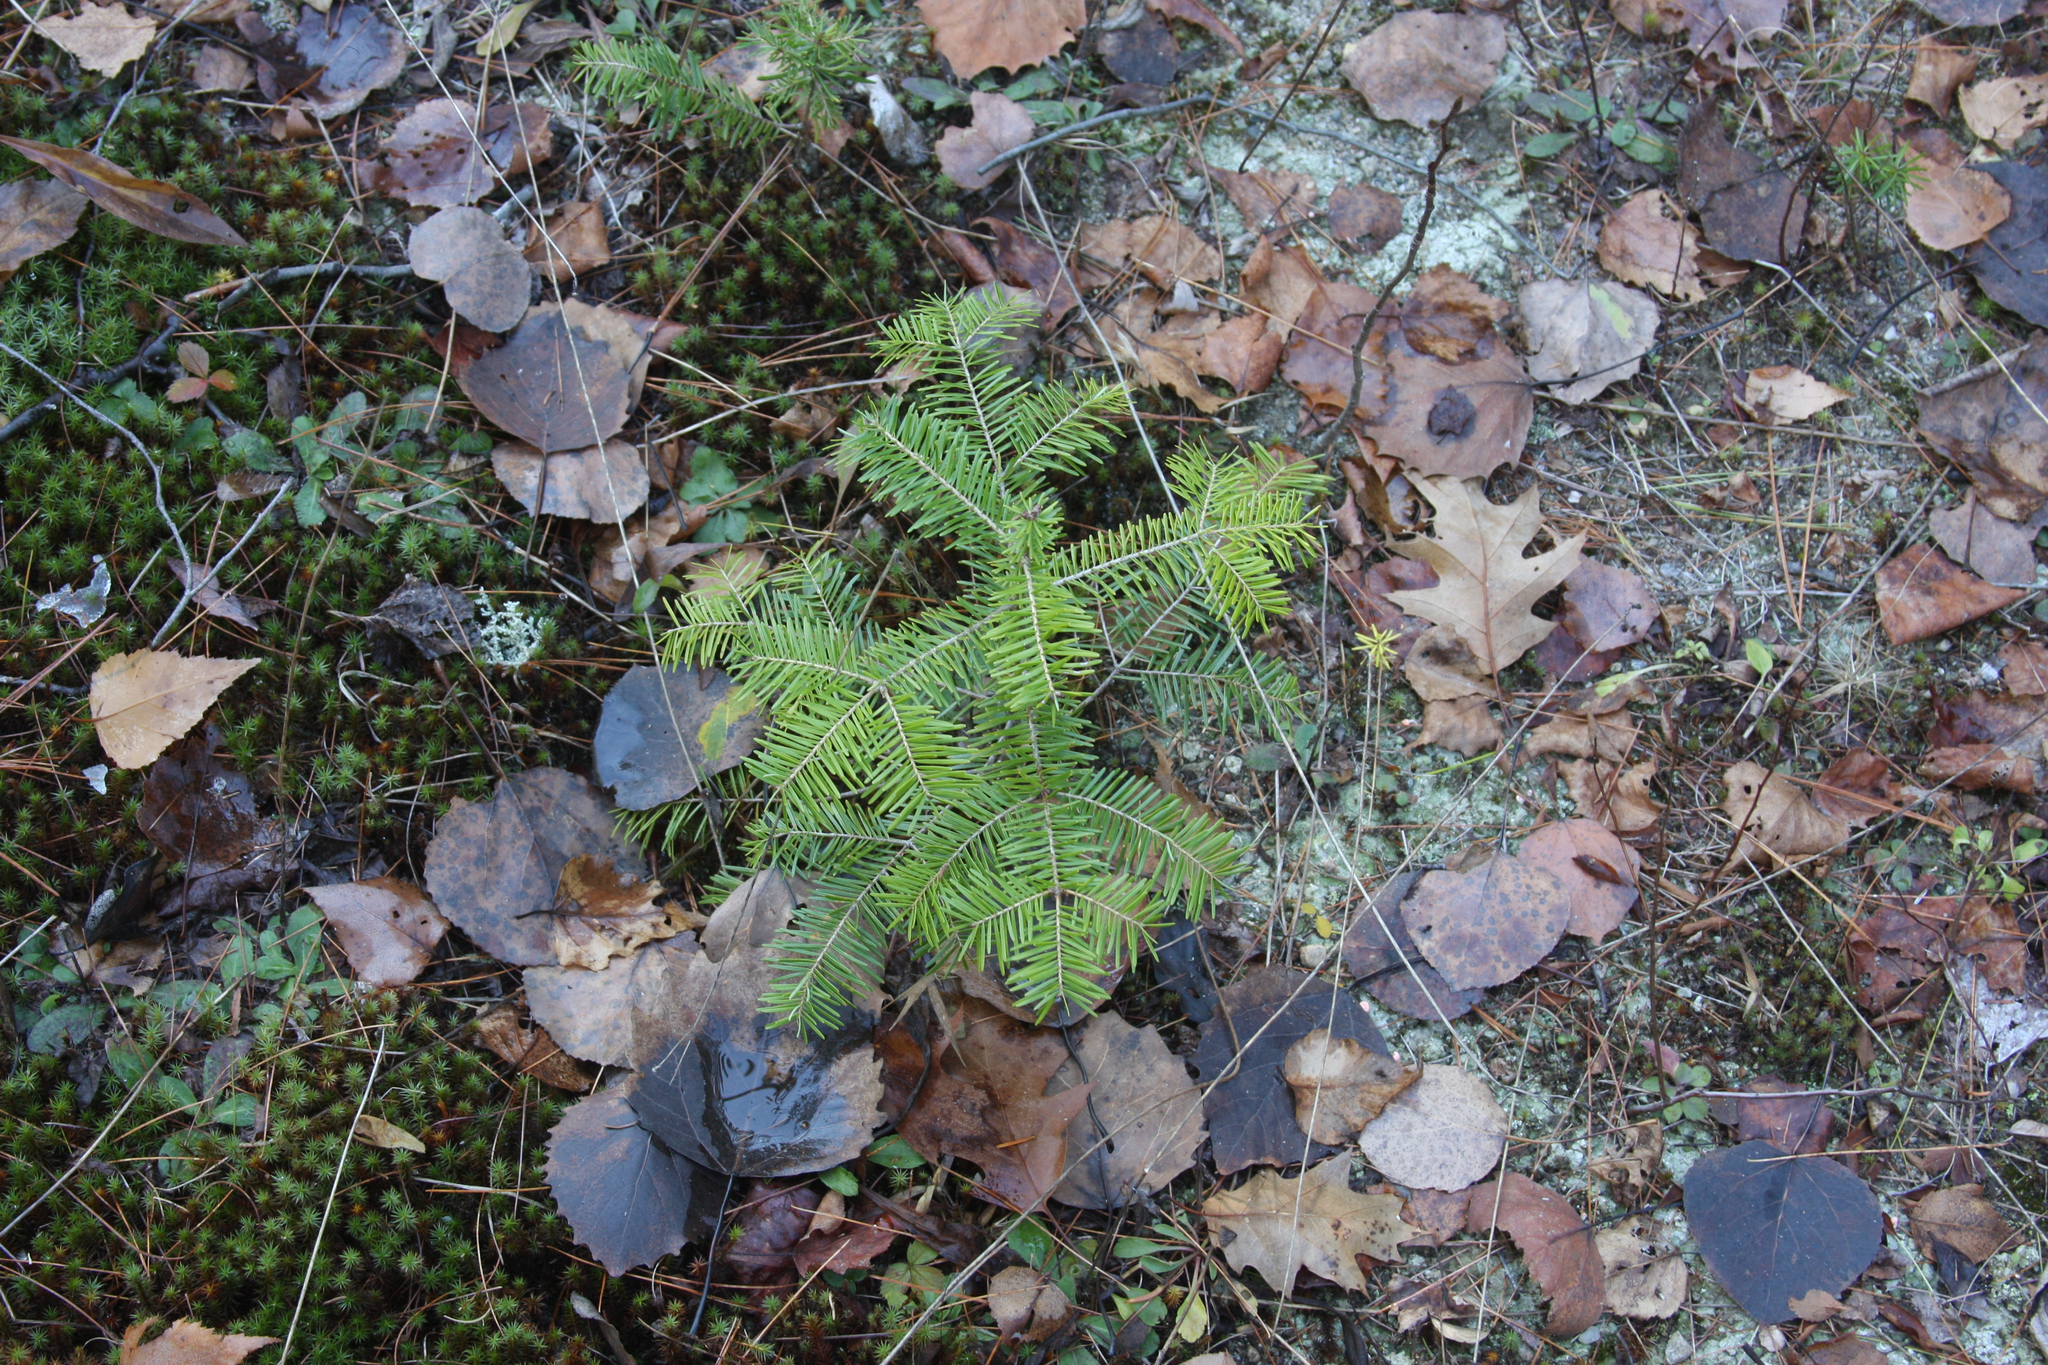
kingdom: Plantae
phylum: Tracheophyta
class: Pinopsida
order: Pinales
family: Pinaceae
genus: Abies
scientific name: Abies balsamea
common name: Balsam fir
